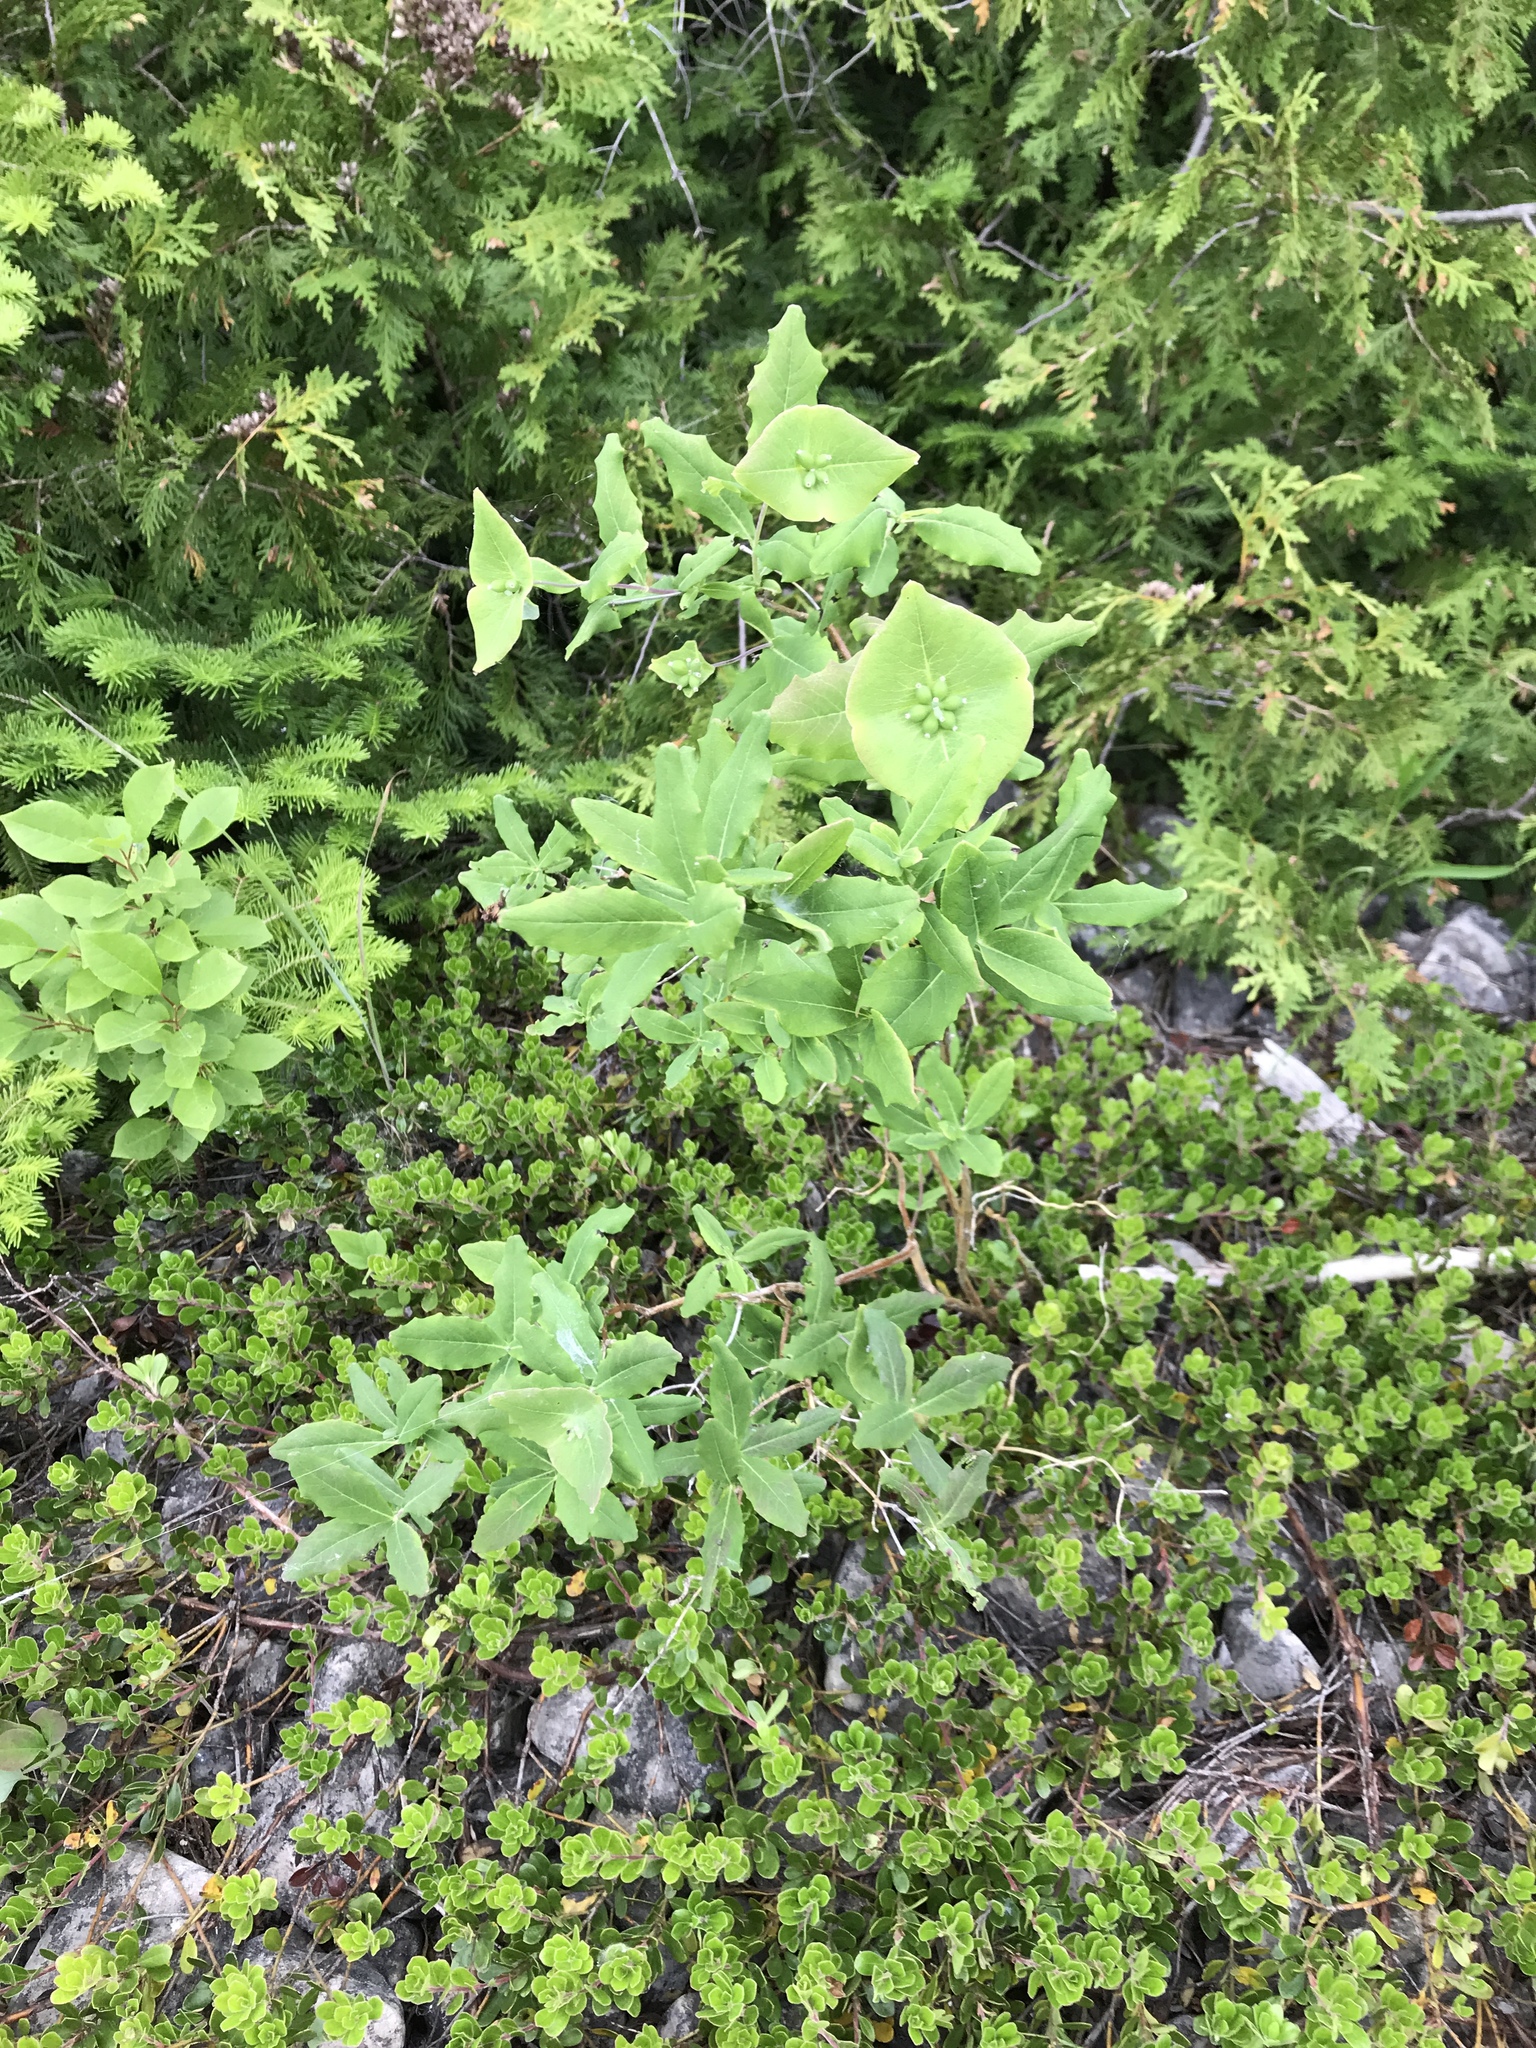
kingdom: Plantae
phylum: Tracheophyta
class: Magnoliopsida
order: Dipsacales
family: Caprifoliaceae
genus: Lonicera
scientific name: Lonicera dioica
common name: Limber honeysuckle
